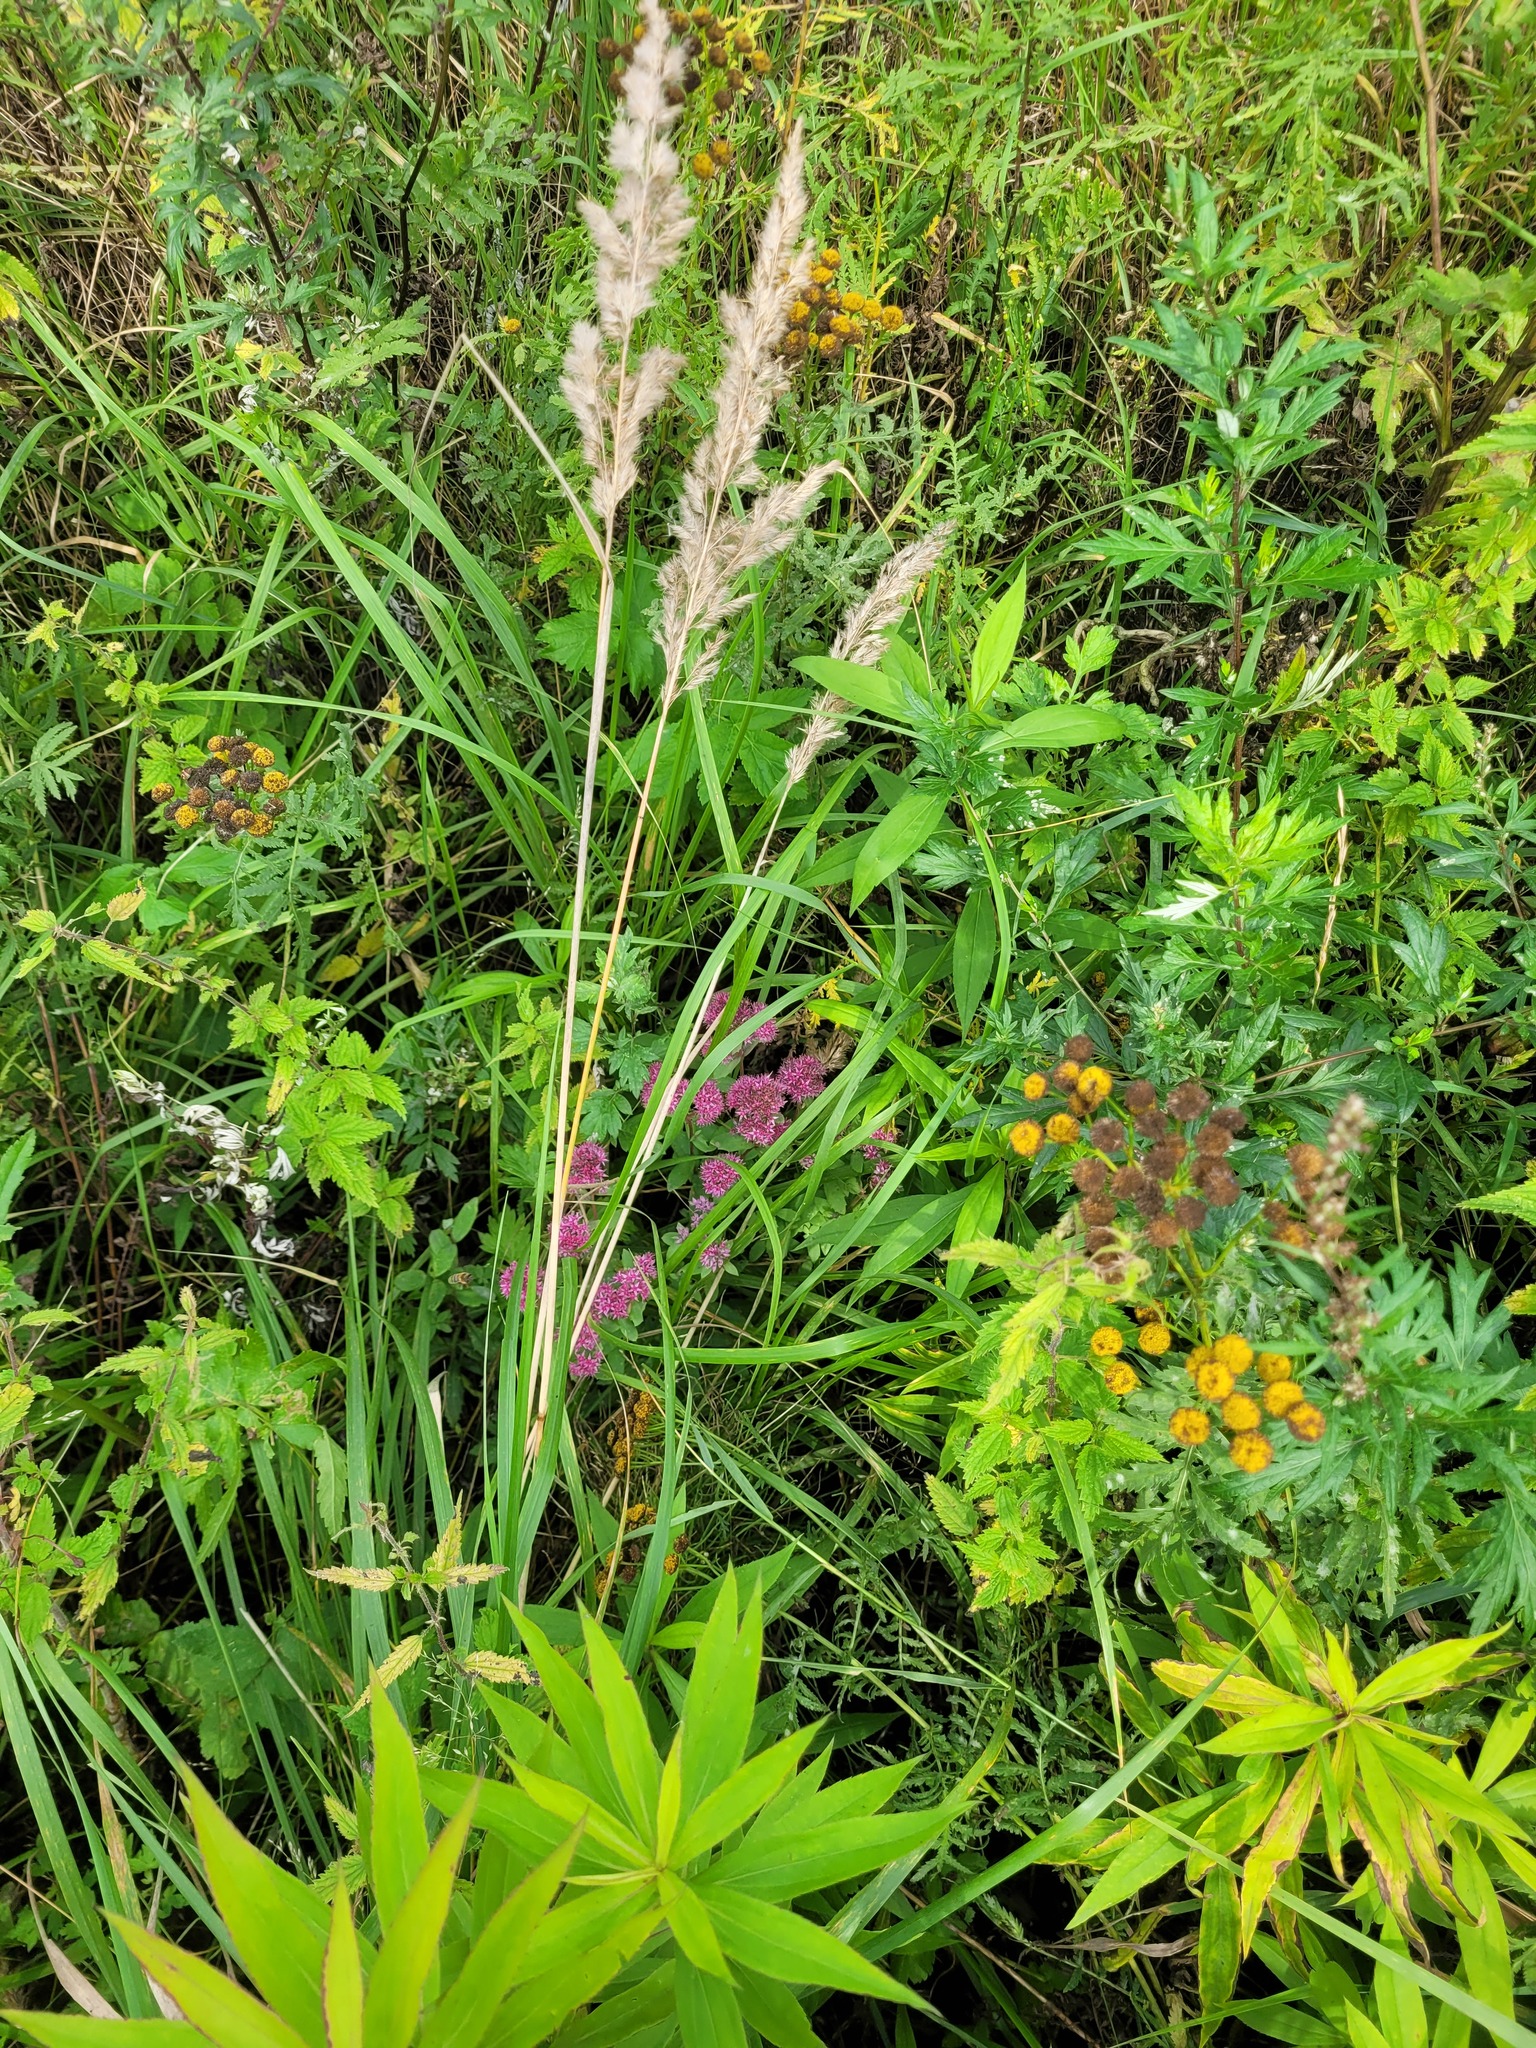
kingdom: Plantae
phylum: Tracheophyta
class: Magnoliopsida
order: Saxifragales
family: Crassulaceae
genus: Hylotelephium
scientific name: Hylotelephium telephium
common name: Live-forever
